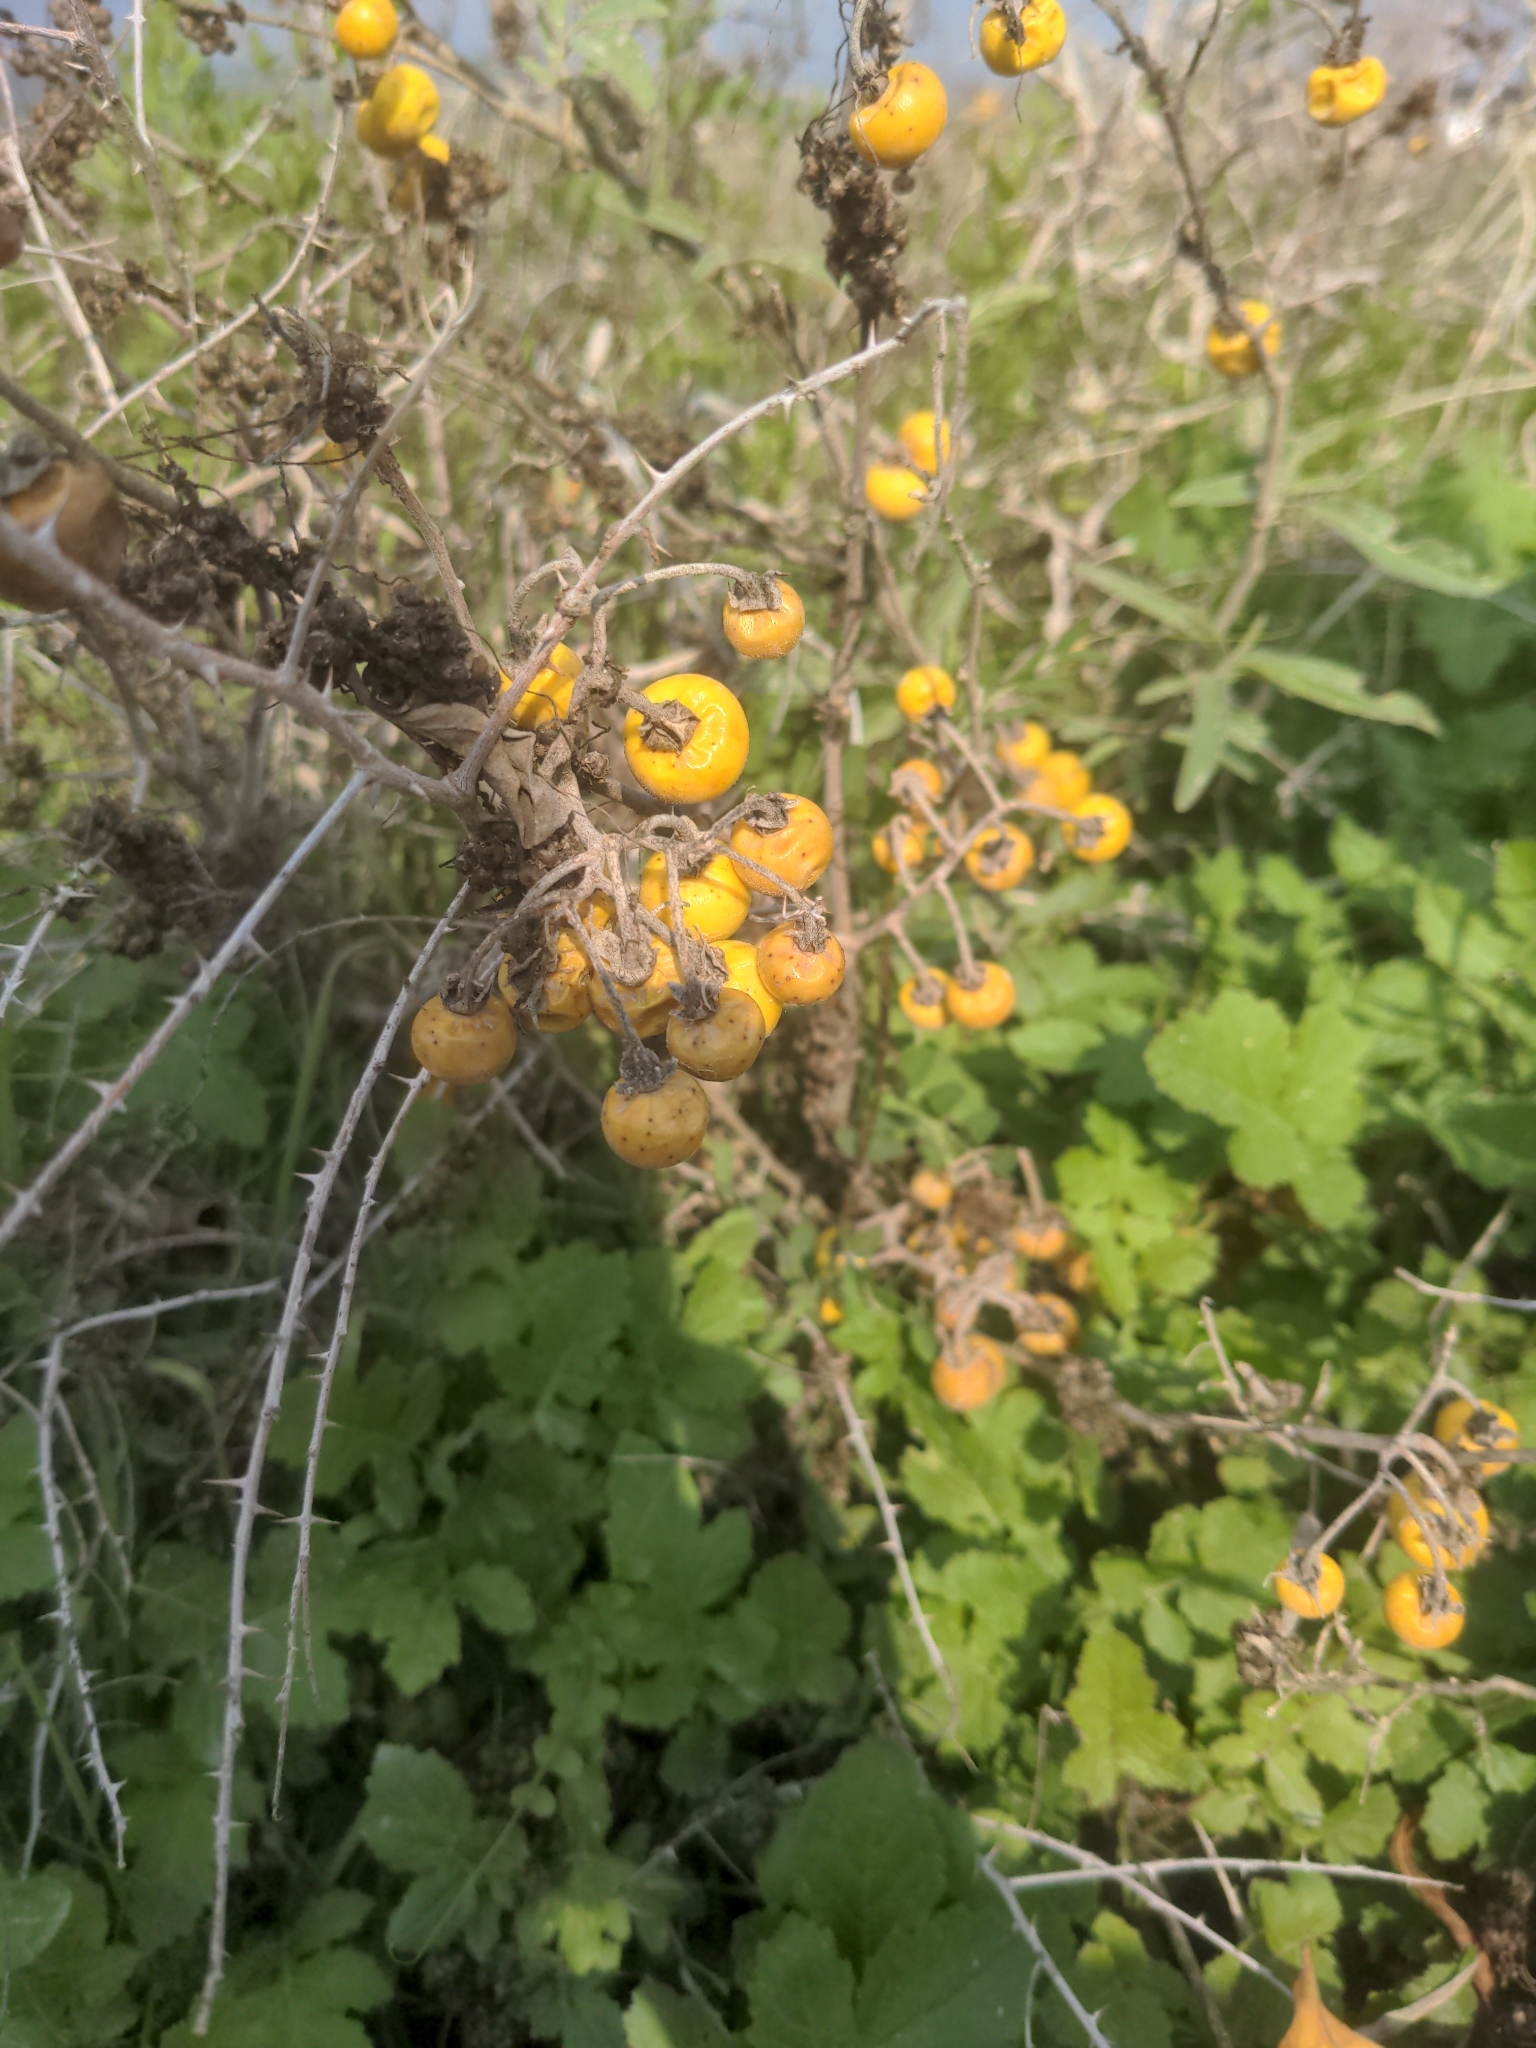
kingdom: Plantae
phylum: Tracheophyta
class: Magnoliopsida
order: Solanales
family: Solanaceae
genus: Solanum
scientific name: Solanum elaeagnifolium
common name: Silverleaf nightshade
